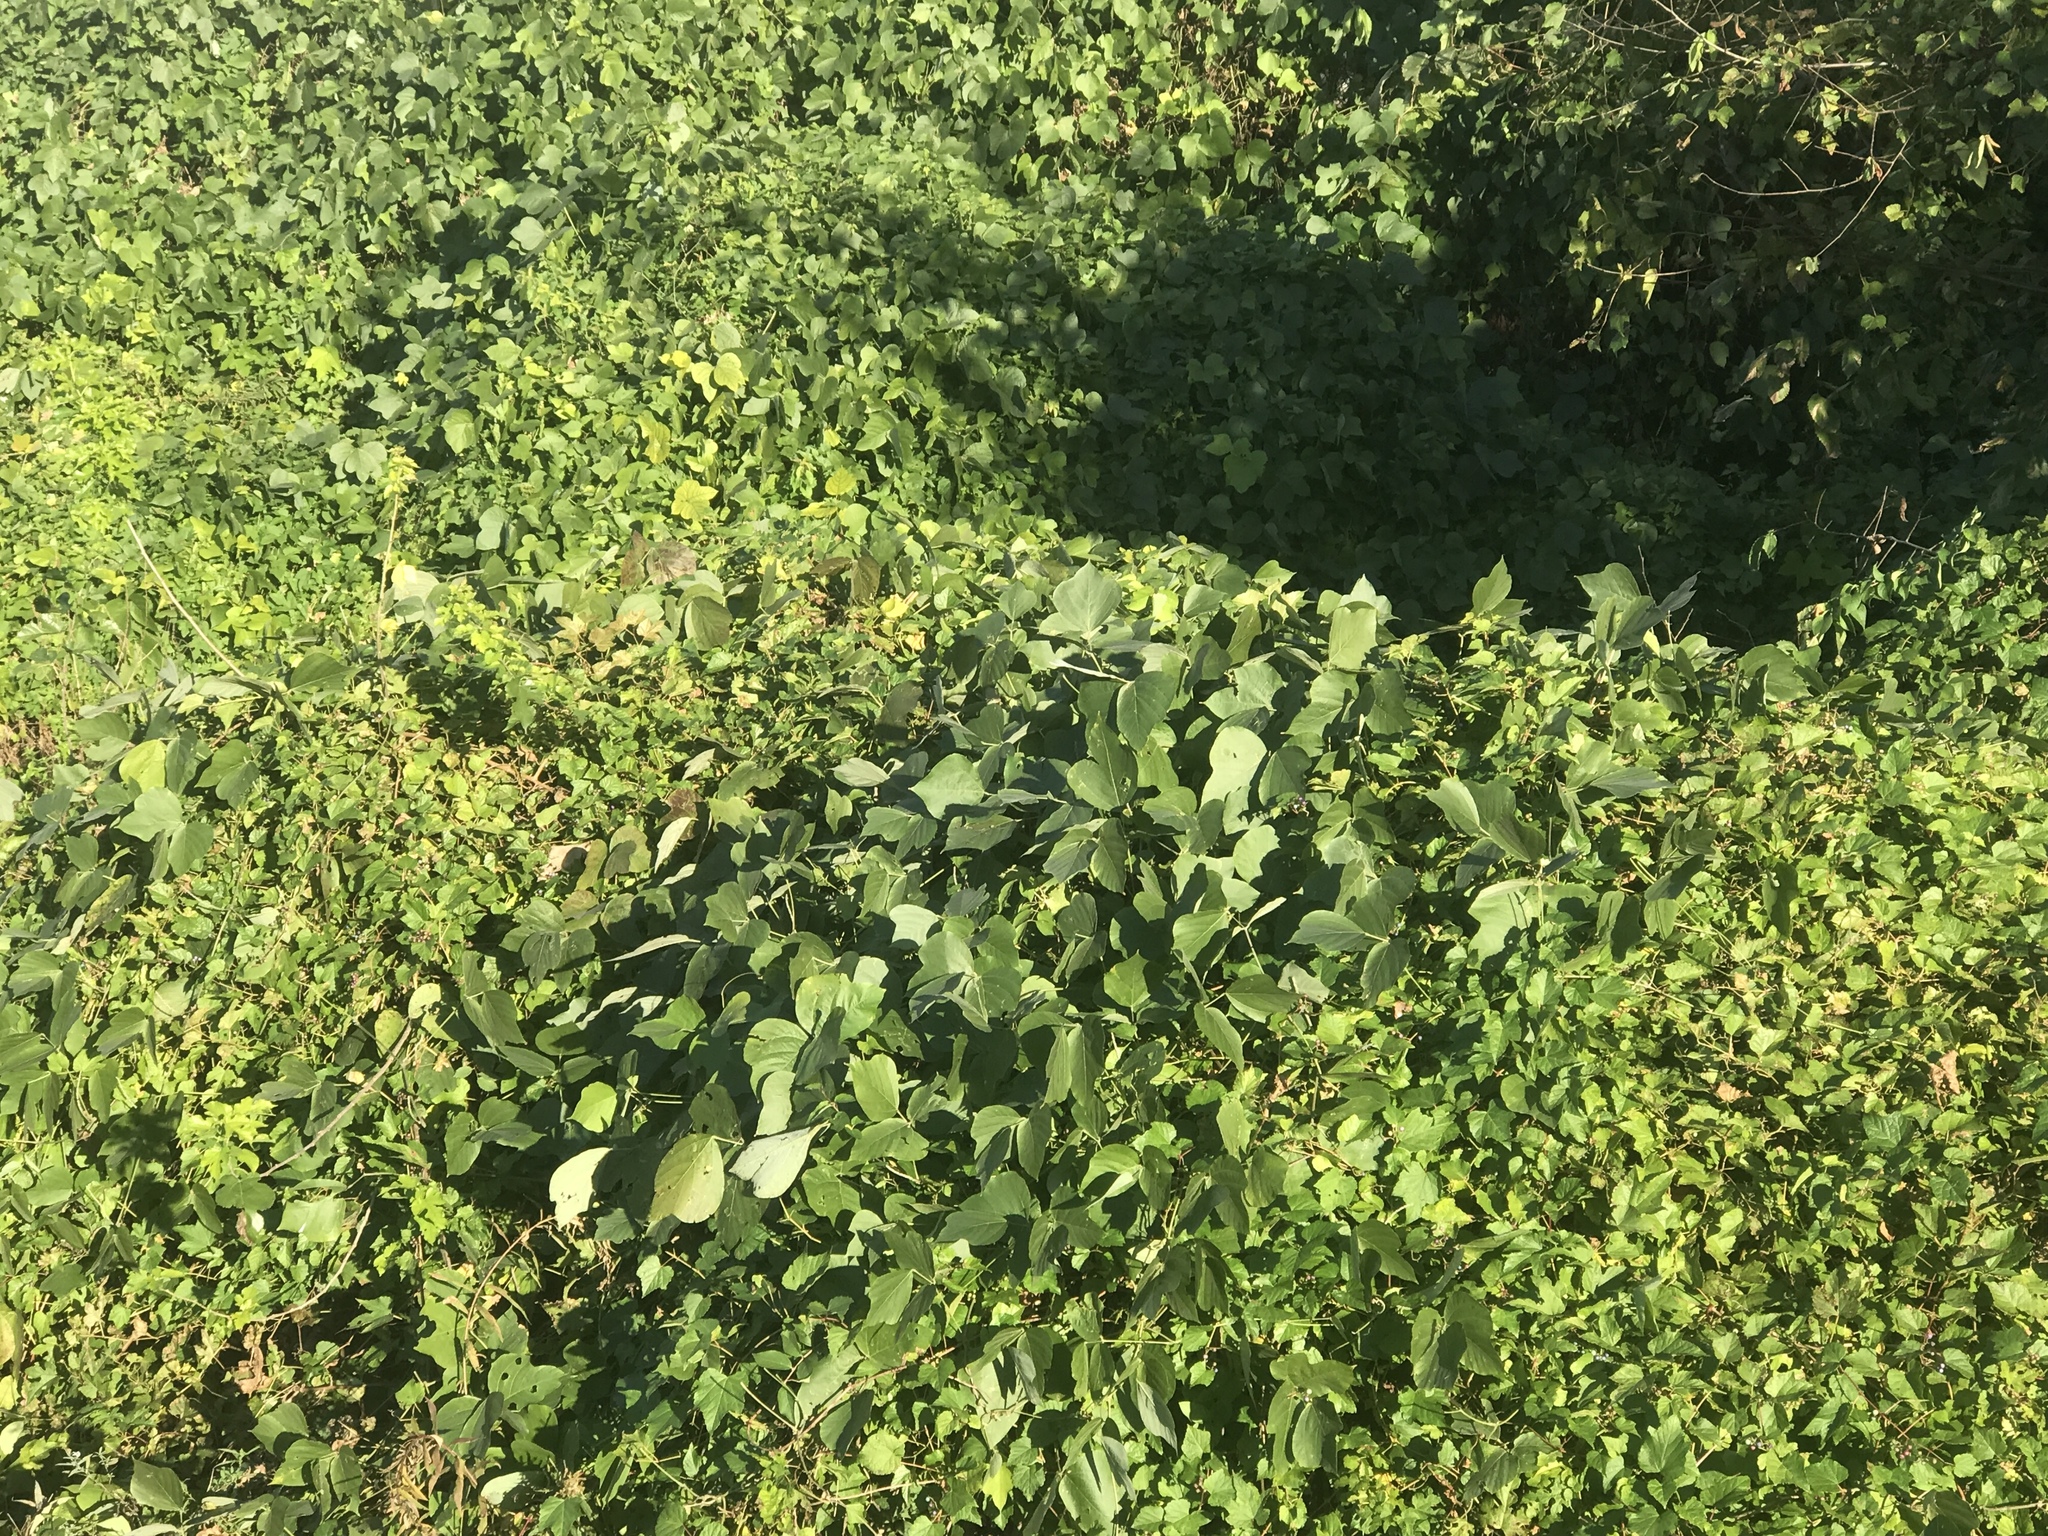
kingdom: Plantae
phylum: Tracheophyta
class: Magnoliopsida
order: Fabales
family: Fabaceae
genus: Pueraria
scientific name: Pueraria montana
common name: Kudzu
